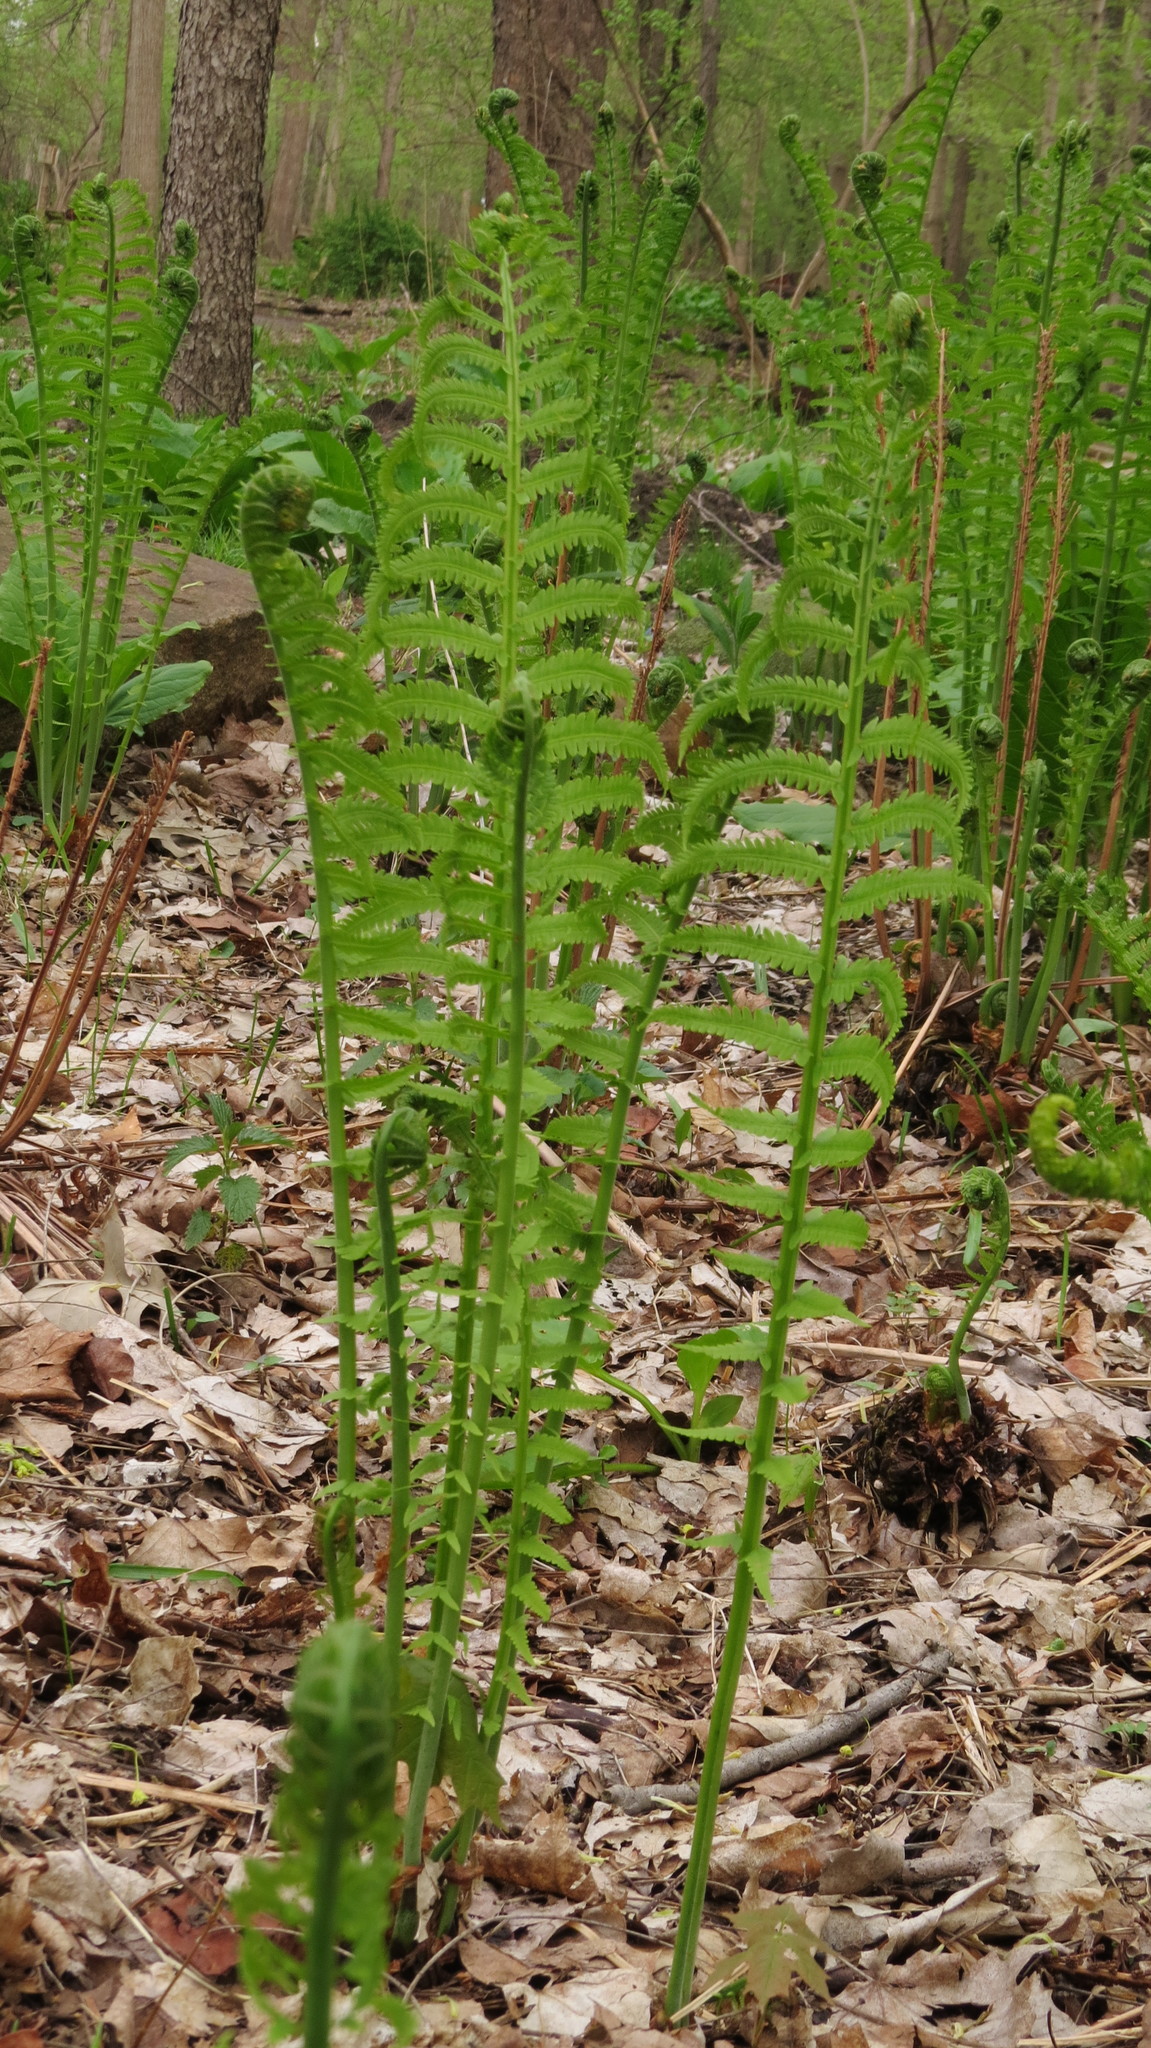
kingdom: Plantae
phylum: Tracheophyta
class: Polypodiopsida
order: Polypodiales
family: Onocleaceae
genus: Matteuccia
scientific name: Matteuccia struthiopteris
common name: Ostrich fern
